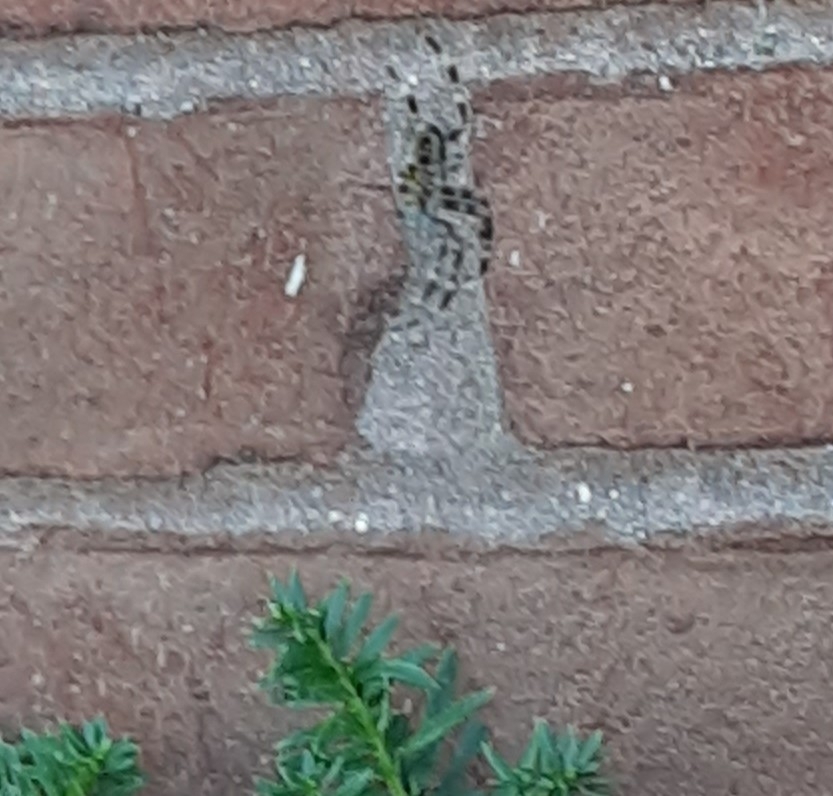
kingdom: Animalia
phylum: Arthropoda
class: Arachnida
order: Araneae
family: Araneidae
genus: Araneus
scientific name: Araneus diadematus
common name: Cross orbweaver
